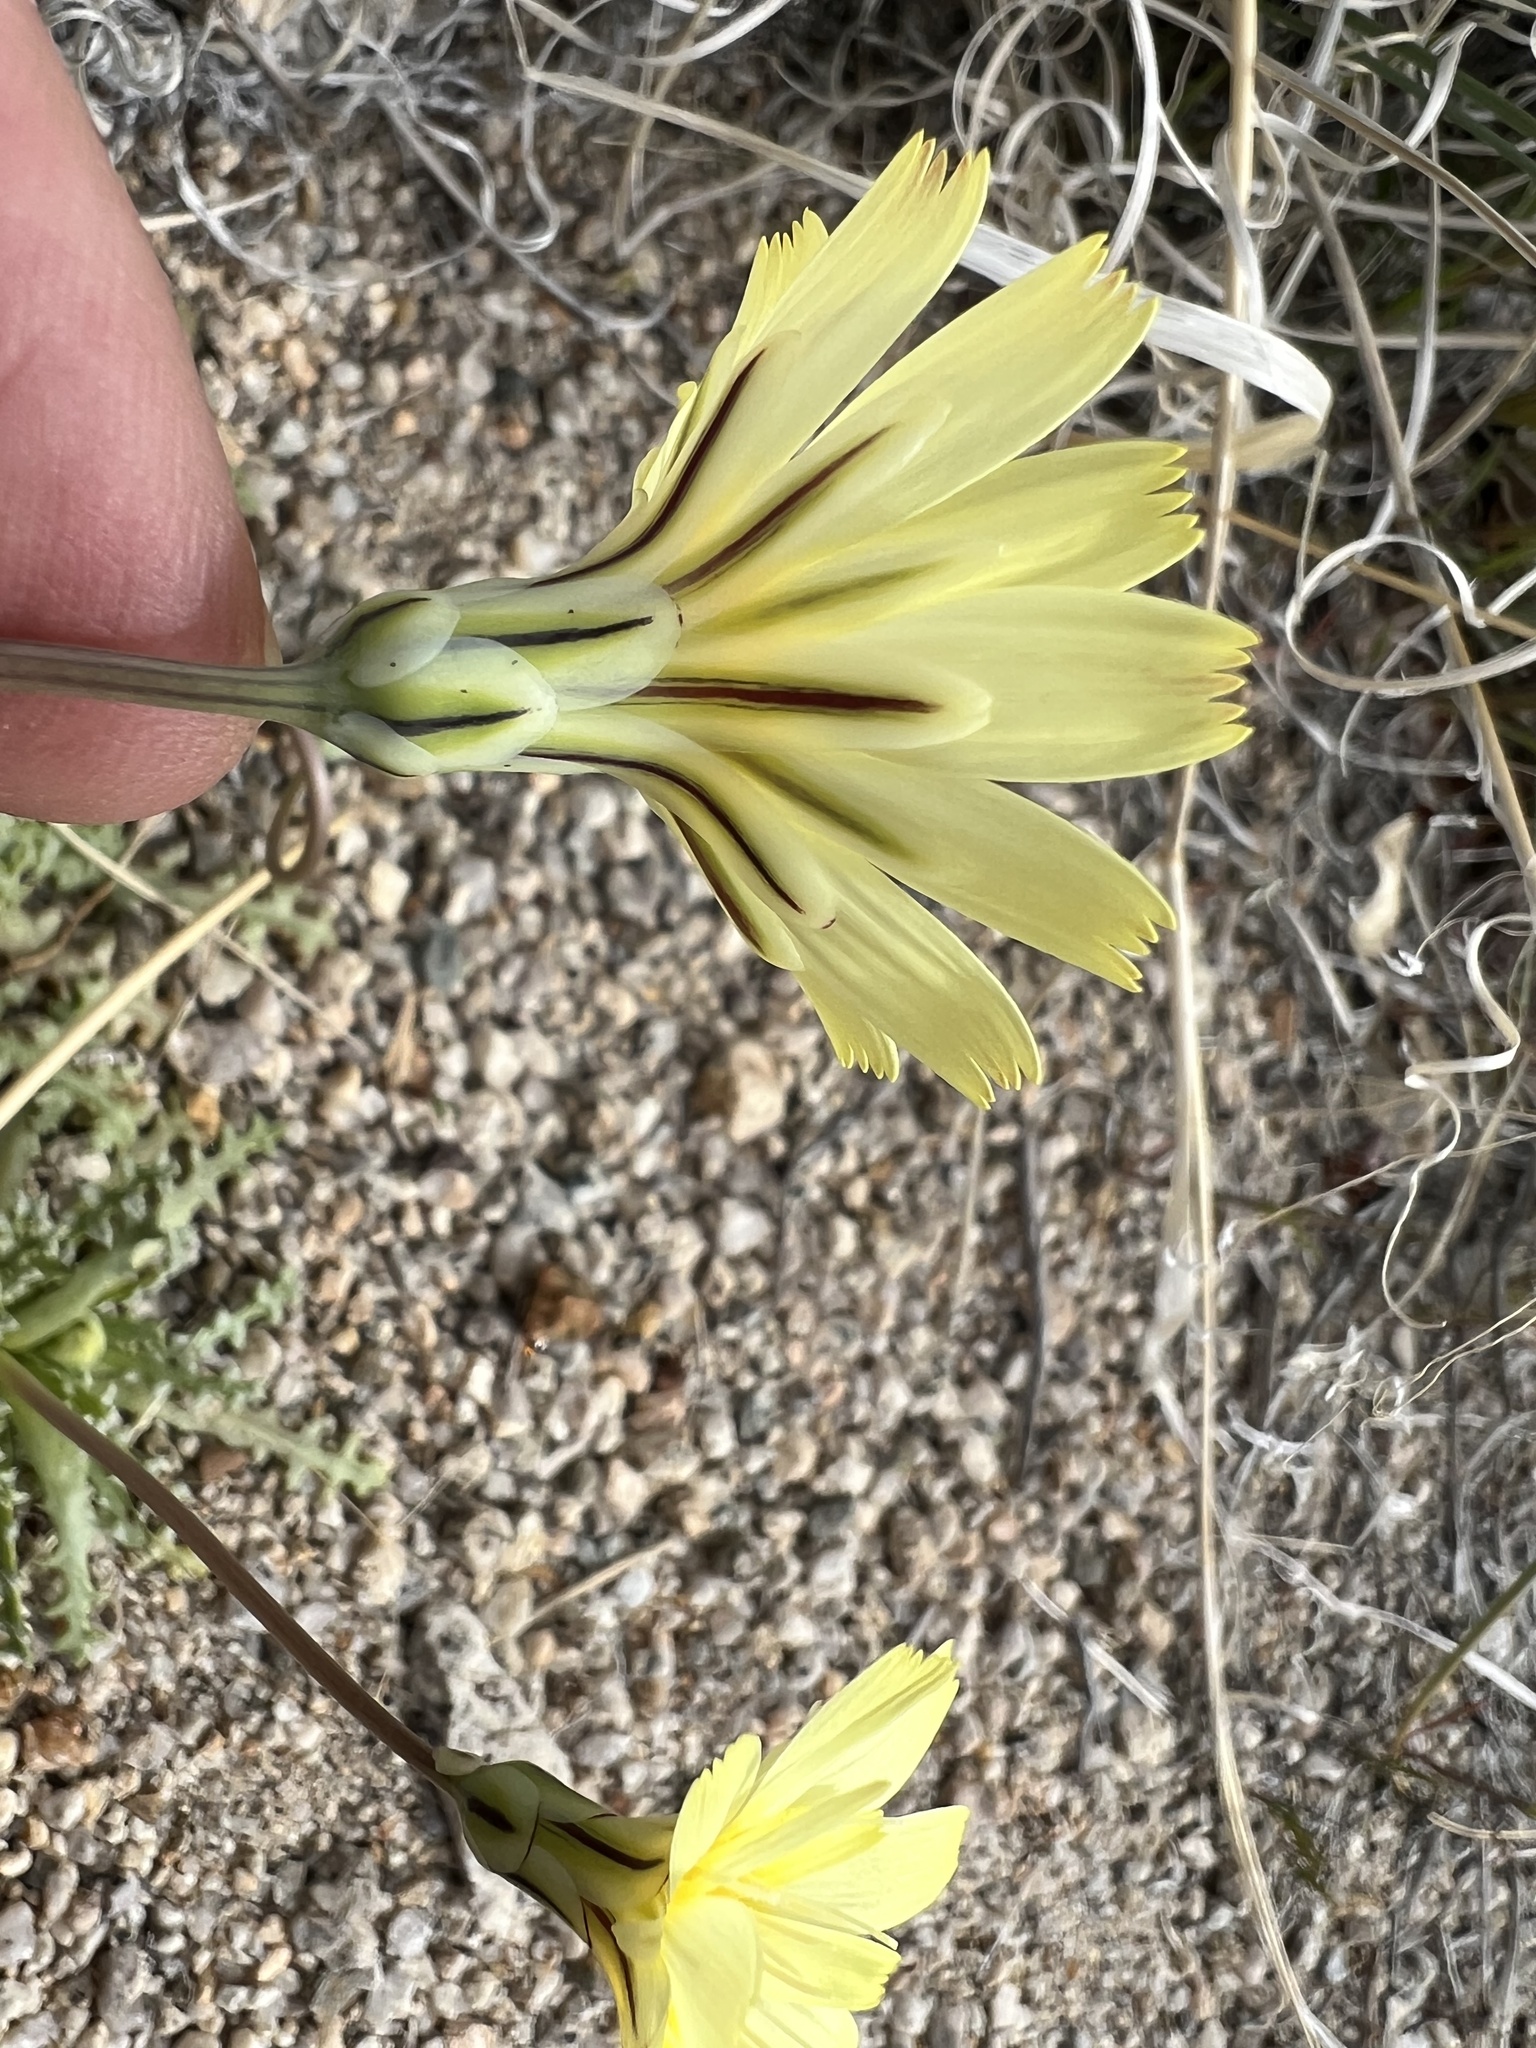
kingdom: Plantae
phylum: Tracheophyta
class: Magnoliopsida
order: Asterales
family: Asteraceae
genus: Anisocoma
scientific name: Anisocoma acaulis
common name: Scalebud
